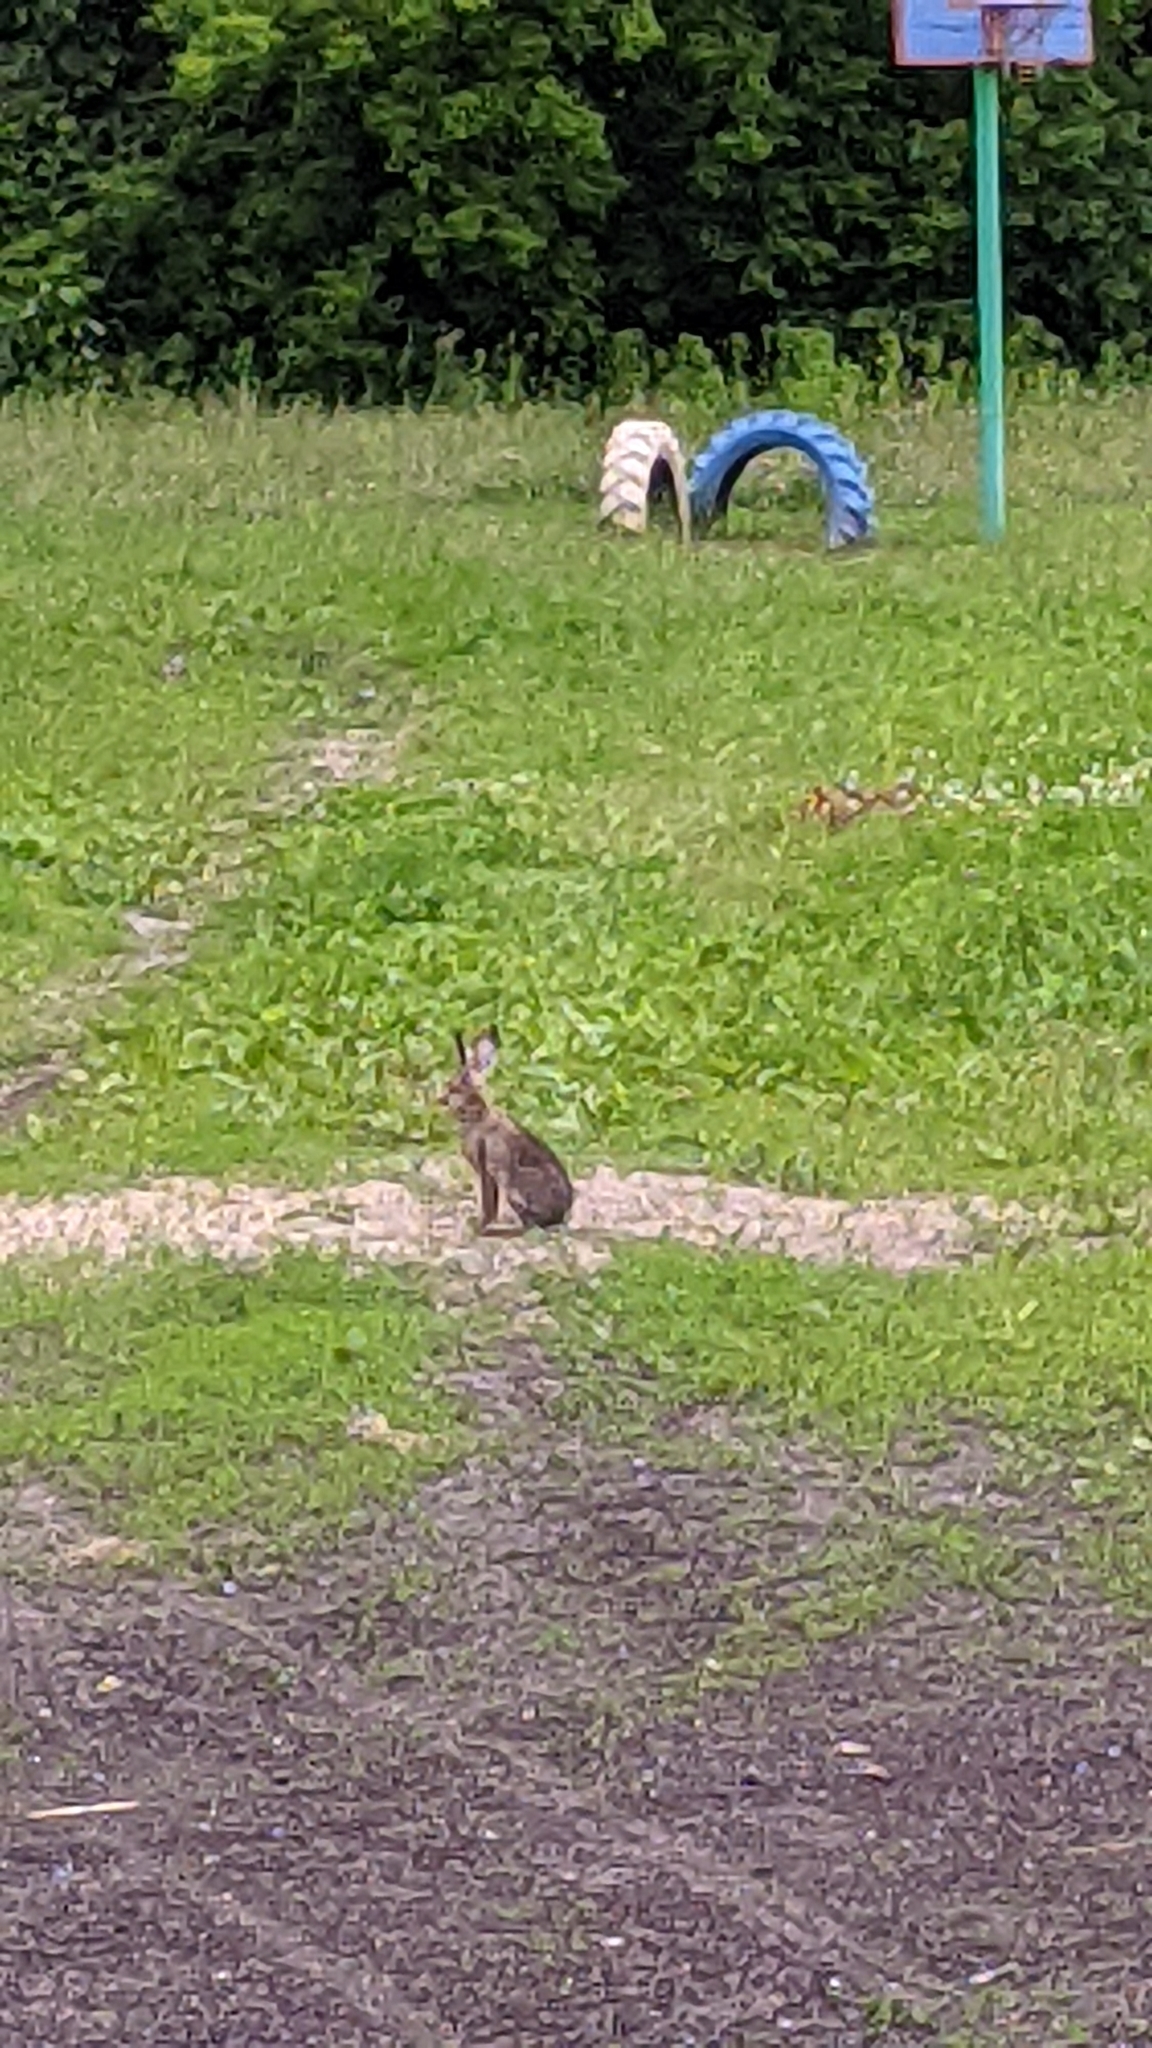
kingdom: Animalia
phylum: Chordata
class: Mammalia
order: Lagomorpha
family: Leporidae
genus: Lepus
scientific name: Lepus europaeus
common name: European hare
